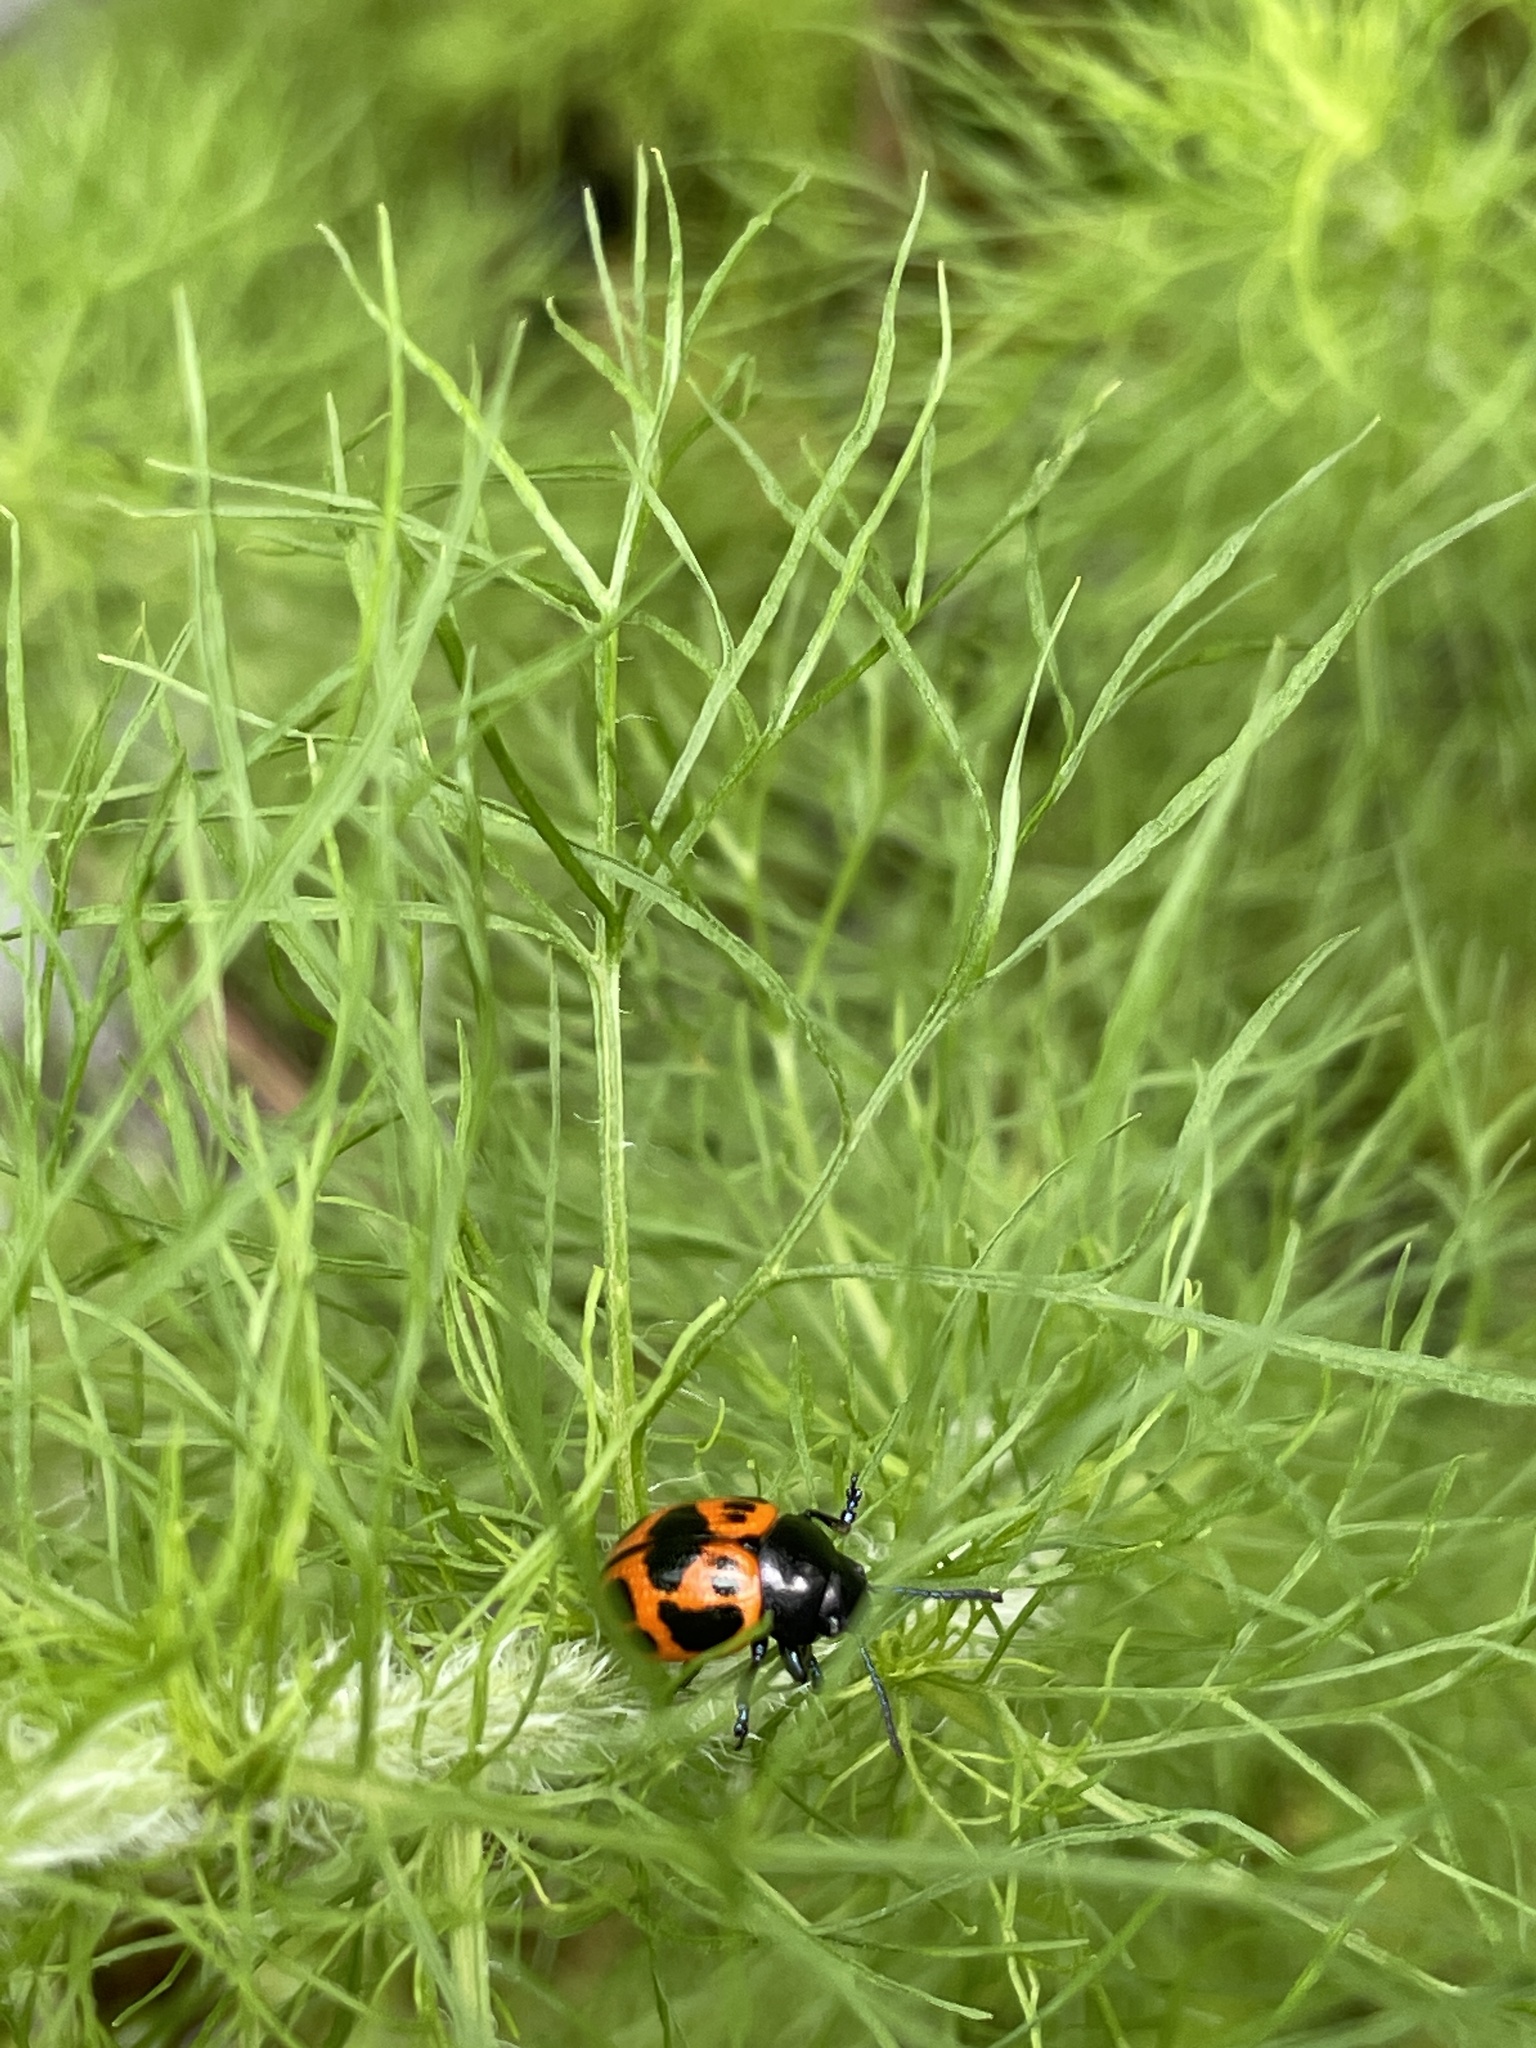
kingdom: Animalia
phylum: Arthropoda
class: Insecta
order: Coleoptera
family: Chrysomelidae
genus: Labidomera
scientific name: Labidomera clivicollis
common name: Swamp milkweed leaf beetle
